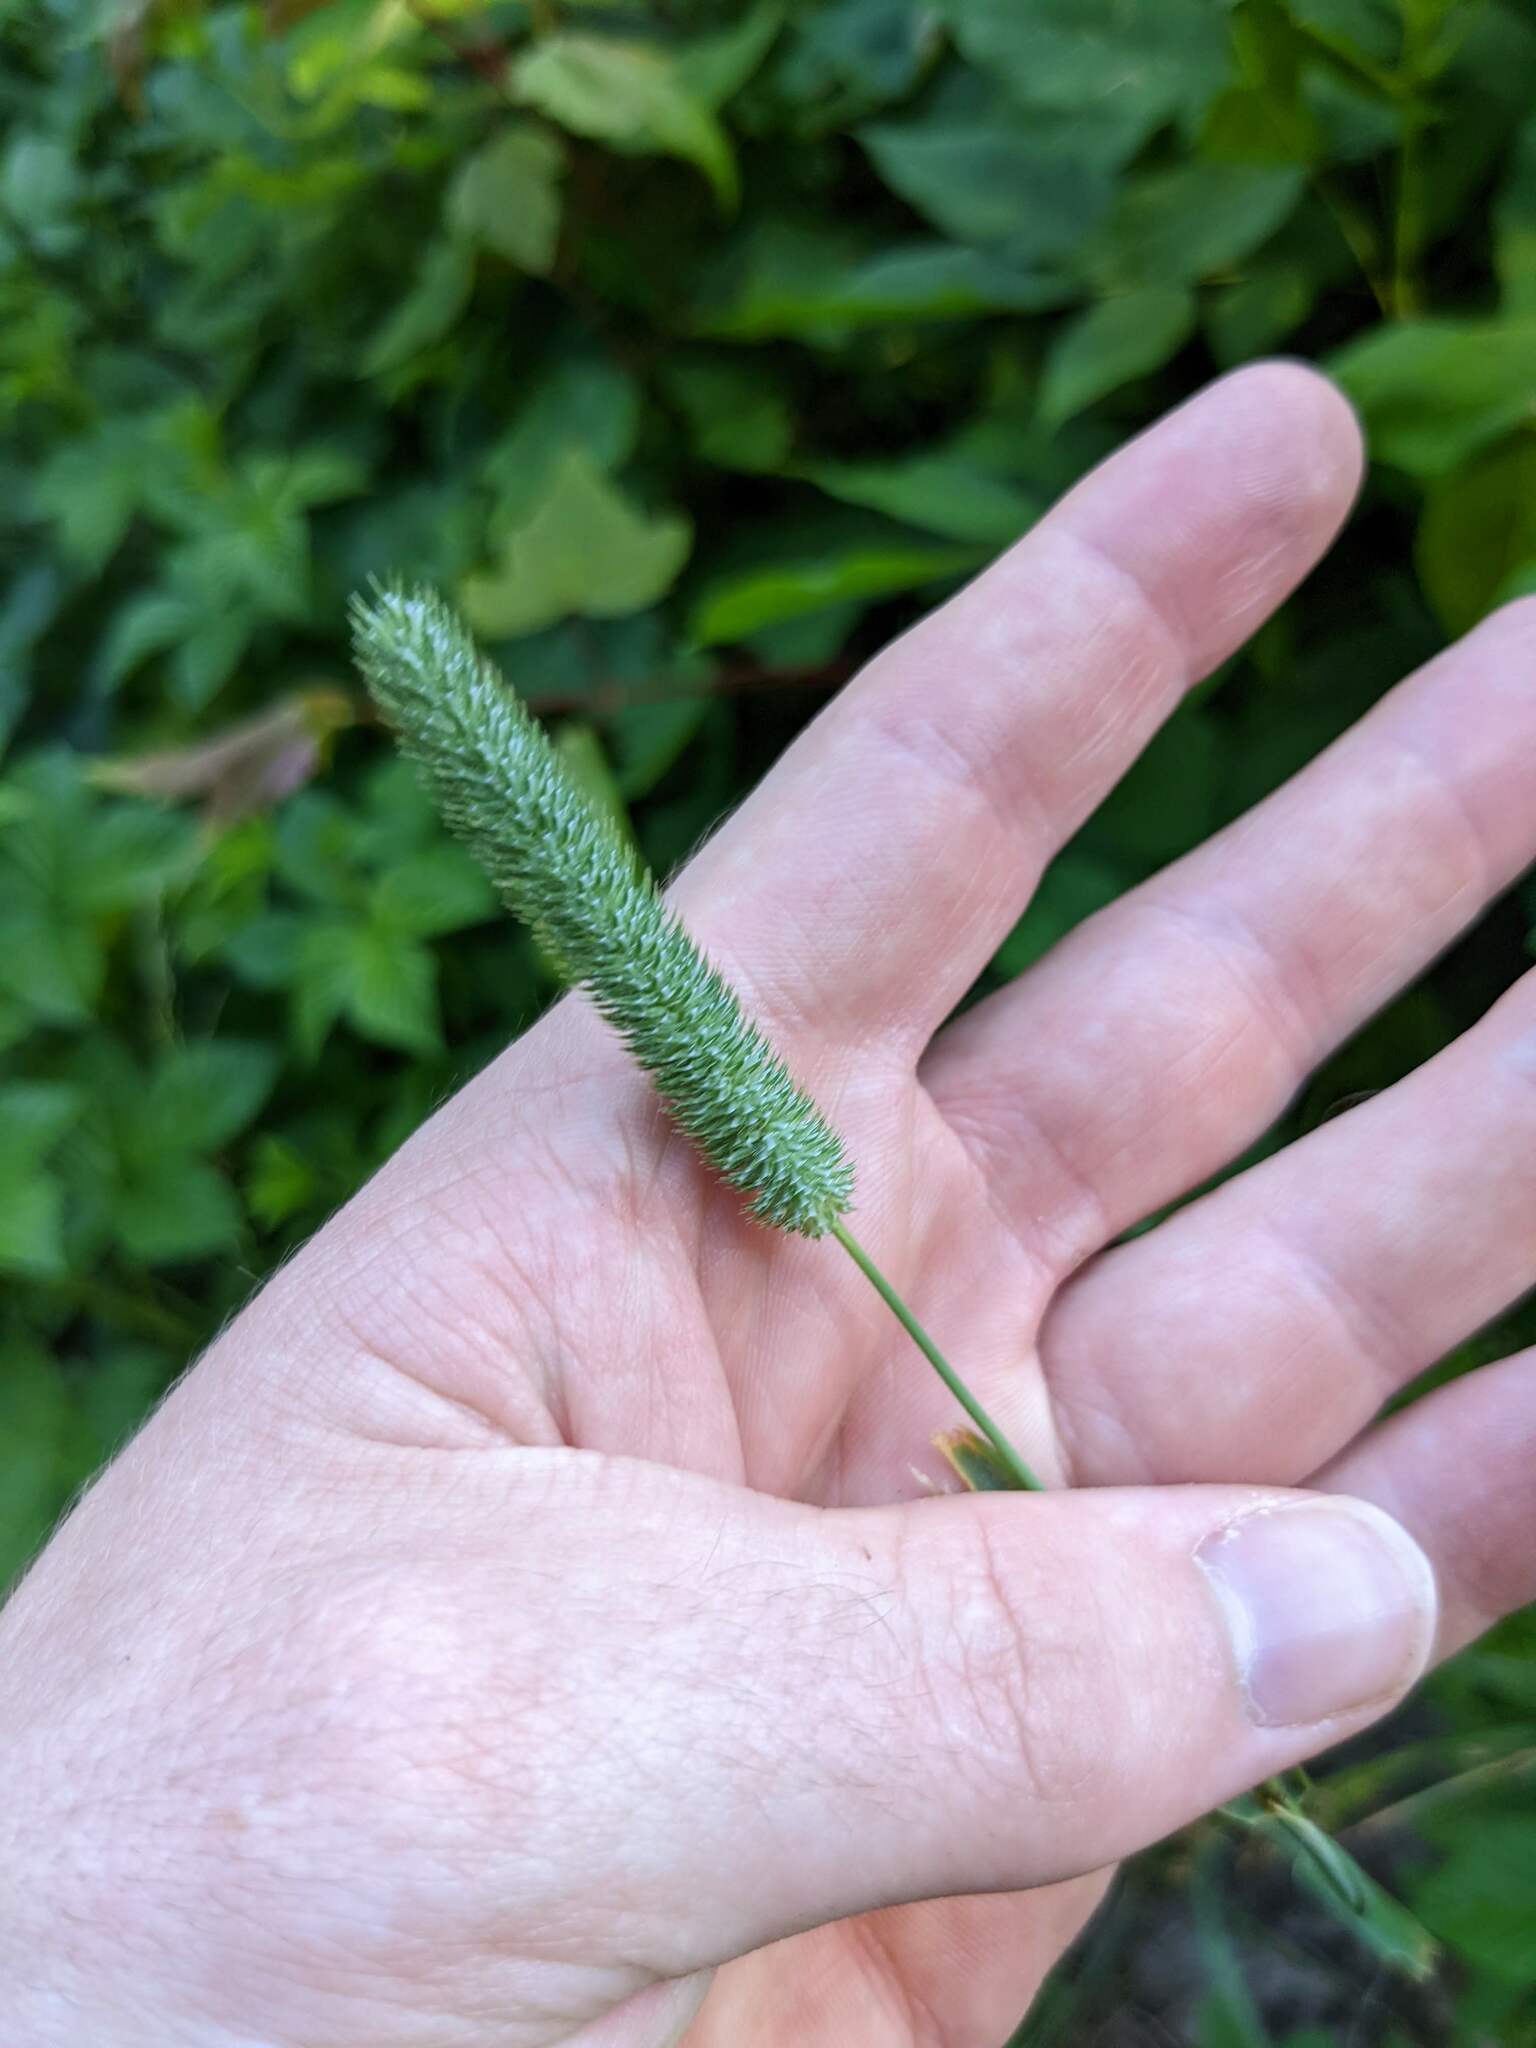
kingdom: Plantae
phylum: Tracheophyta
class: Liliopsida
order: Poales
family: Poaceae
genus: Phleum
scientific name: Phleum pratense
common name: Timothy grass
